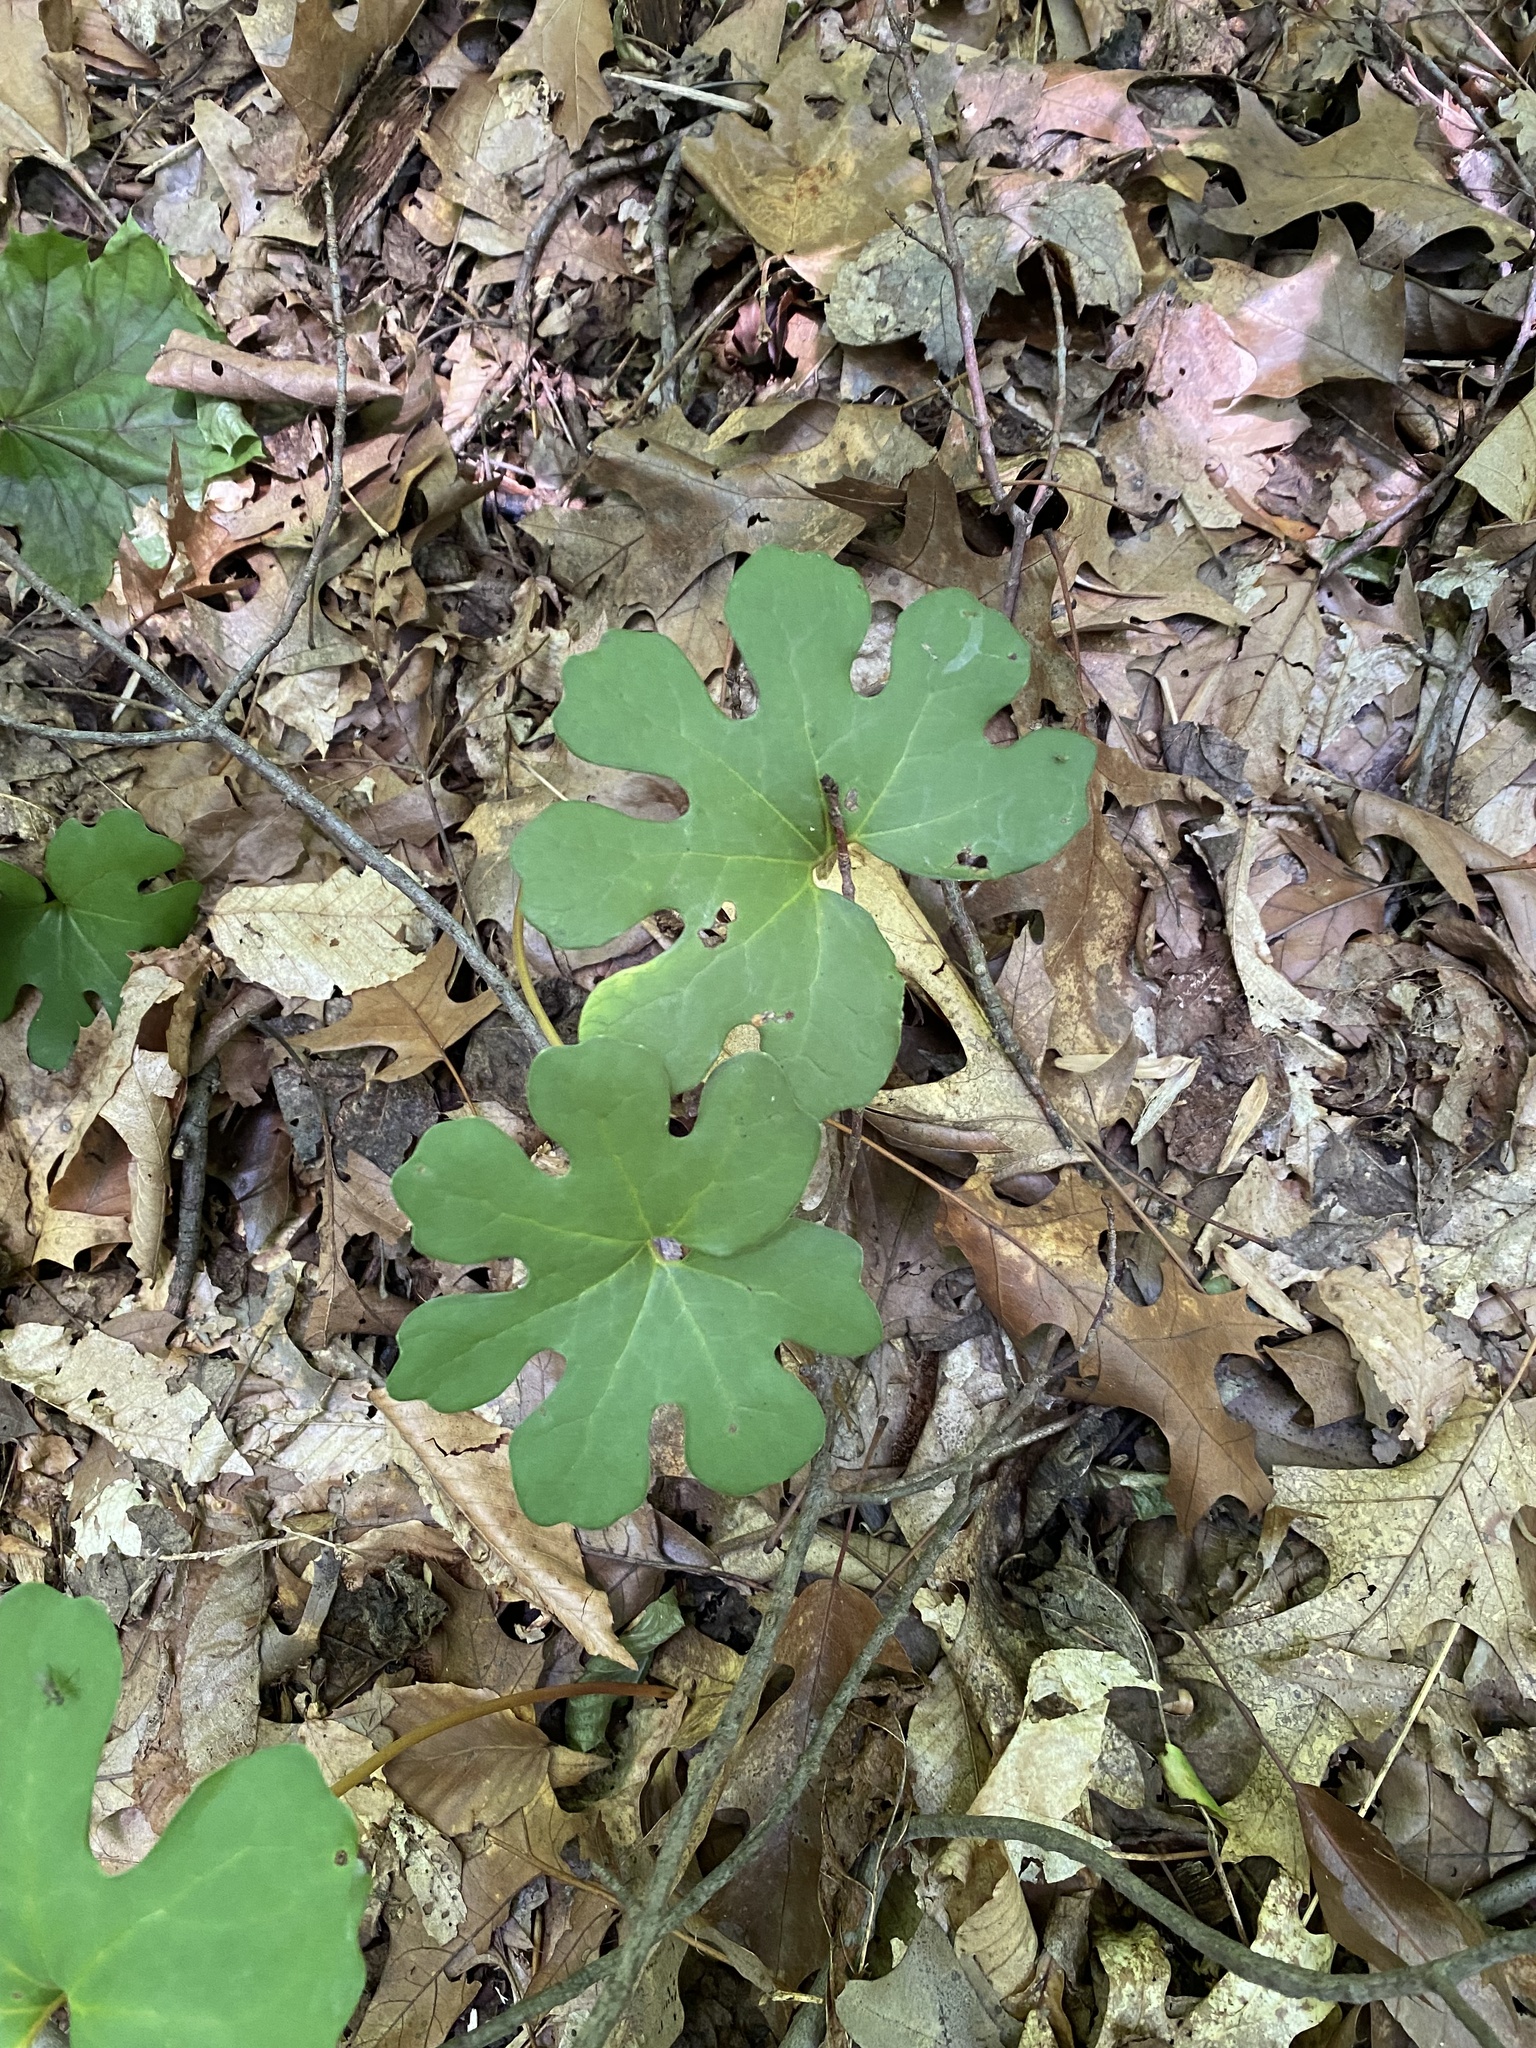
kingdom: Plantae
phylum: Tracheophyta
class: Magnoliopsida
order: Ranunculales
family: Papaveraceae
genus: Sanguinaria
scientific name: Sanguinaria canadensis
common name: Bloodroot
